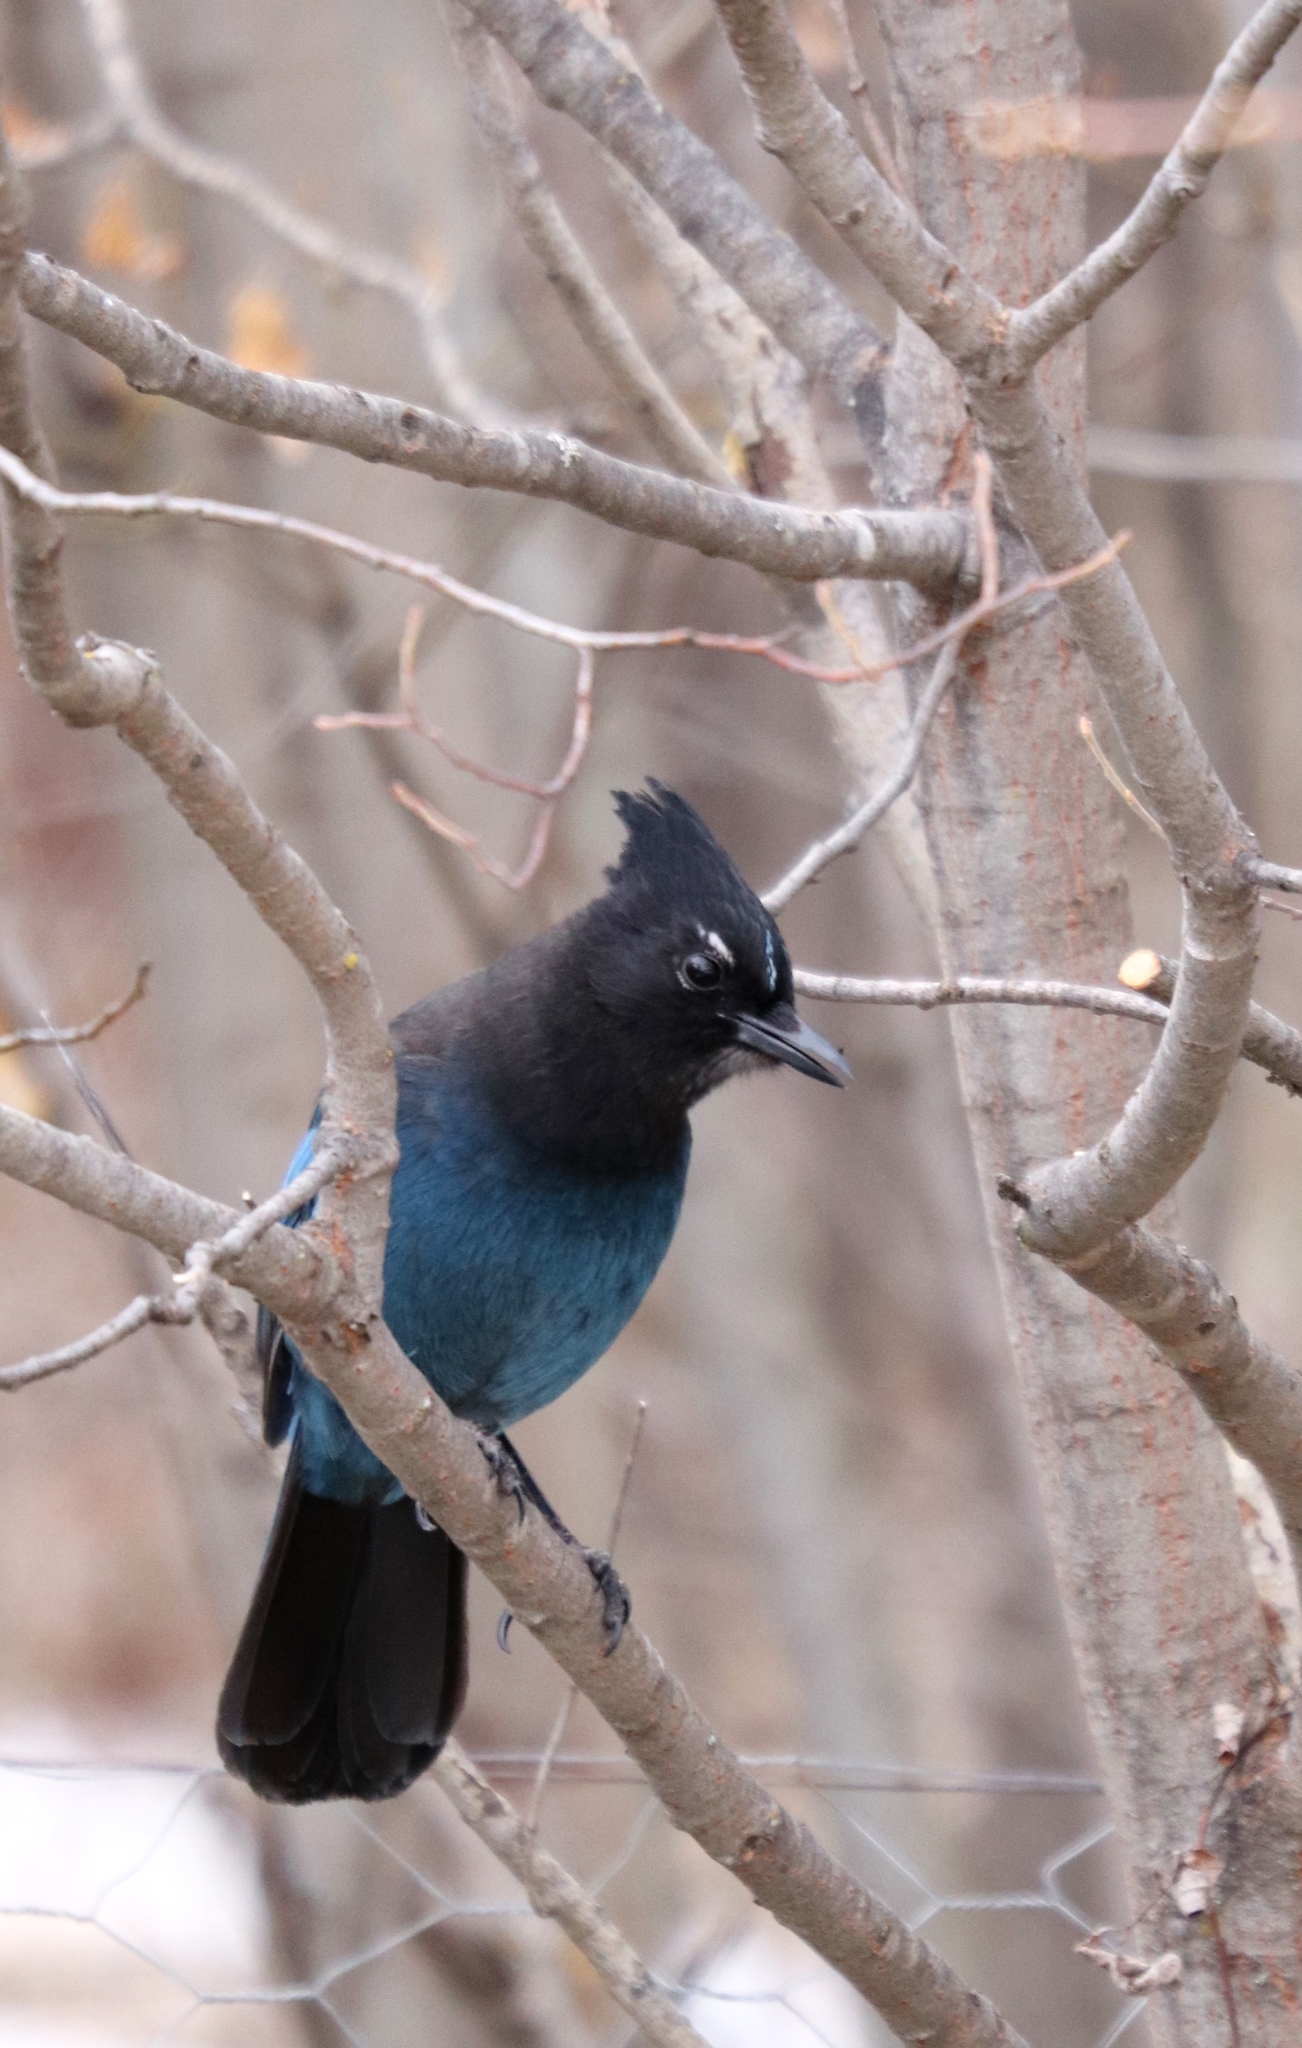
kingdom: Animalia
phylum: Chordata
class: Aves
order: Passeriformes
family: Corvidae
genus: Cyanocitta
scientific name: Cyanocitta stelleri
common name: Steller's jay
